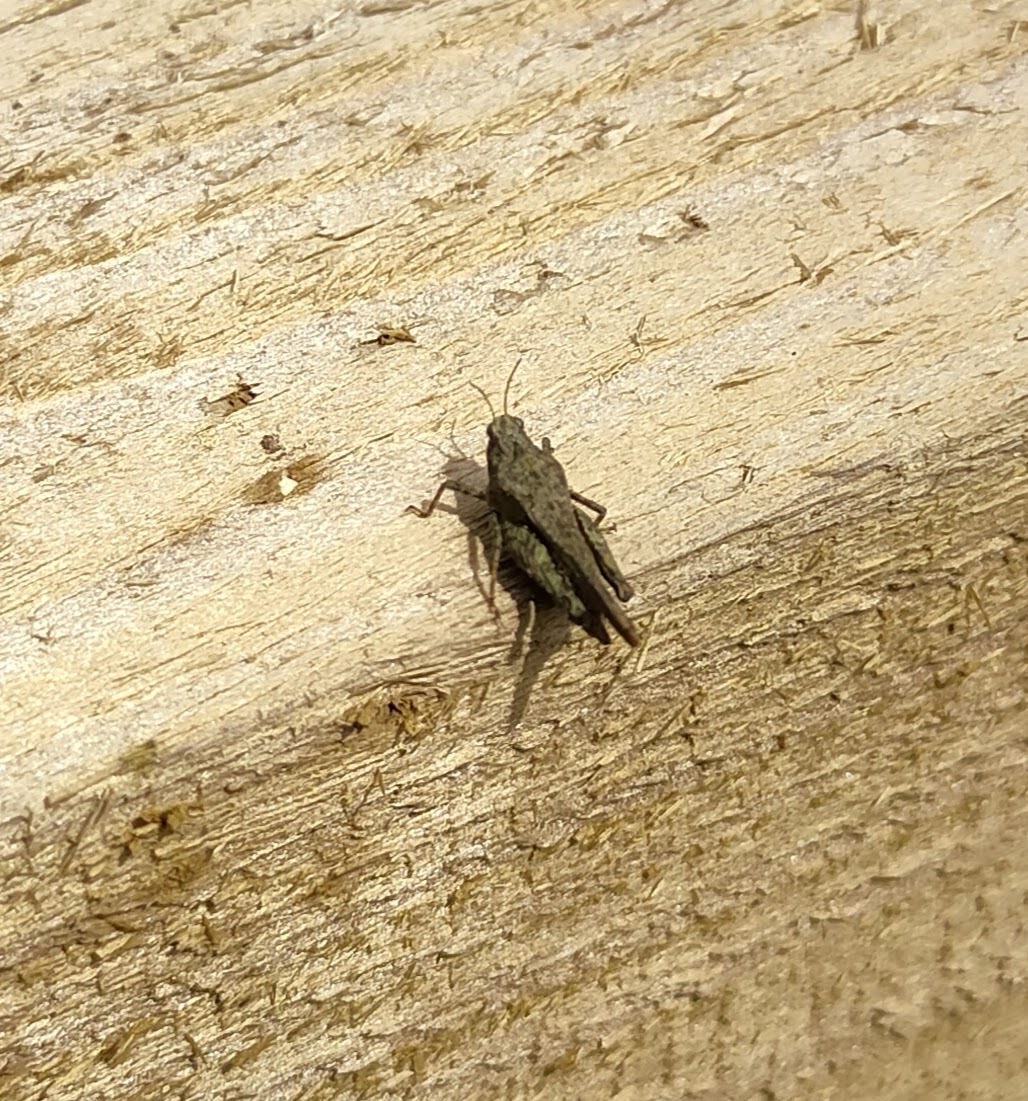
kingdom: Animalia
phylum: Arthropoda
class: Insecta
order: Orthoptera
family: Tetrigidae
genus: Tetrix
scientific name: Tetrix subulata
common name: Slender ground-hopper
